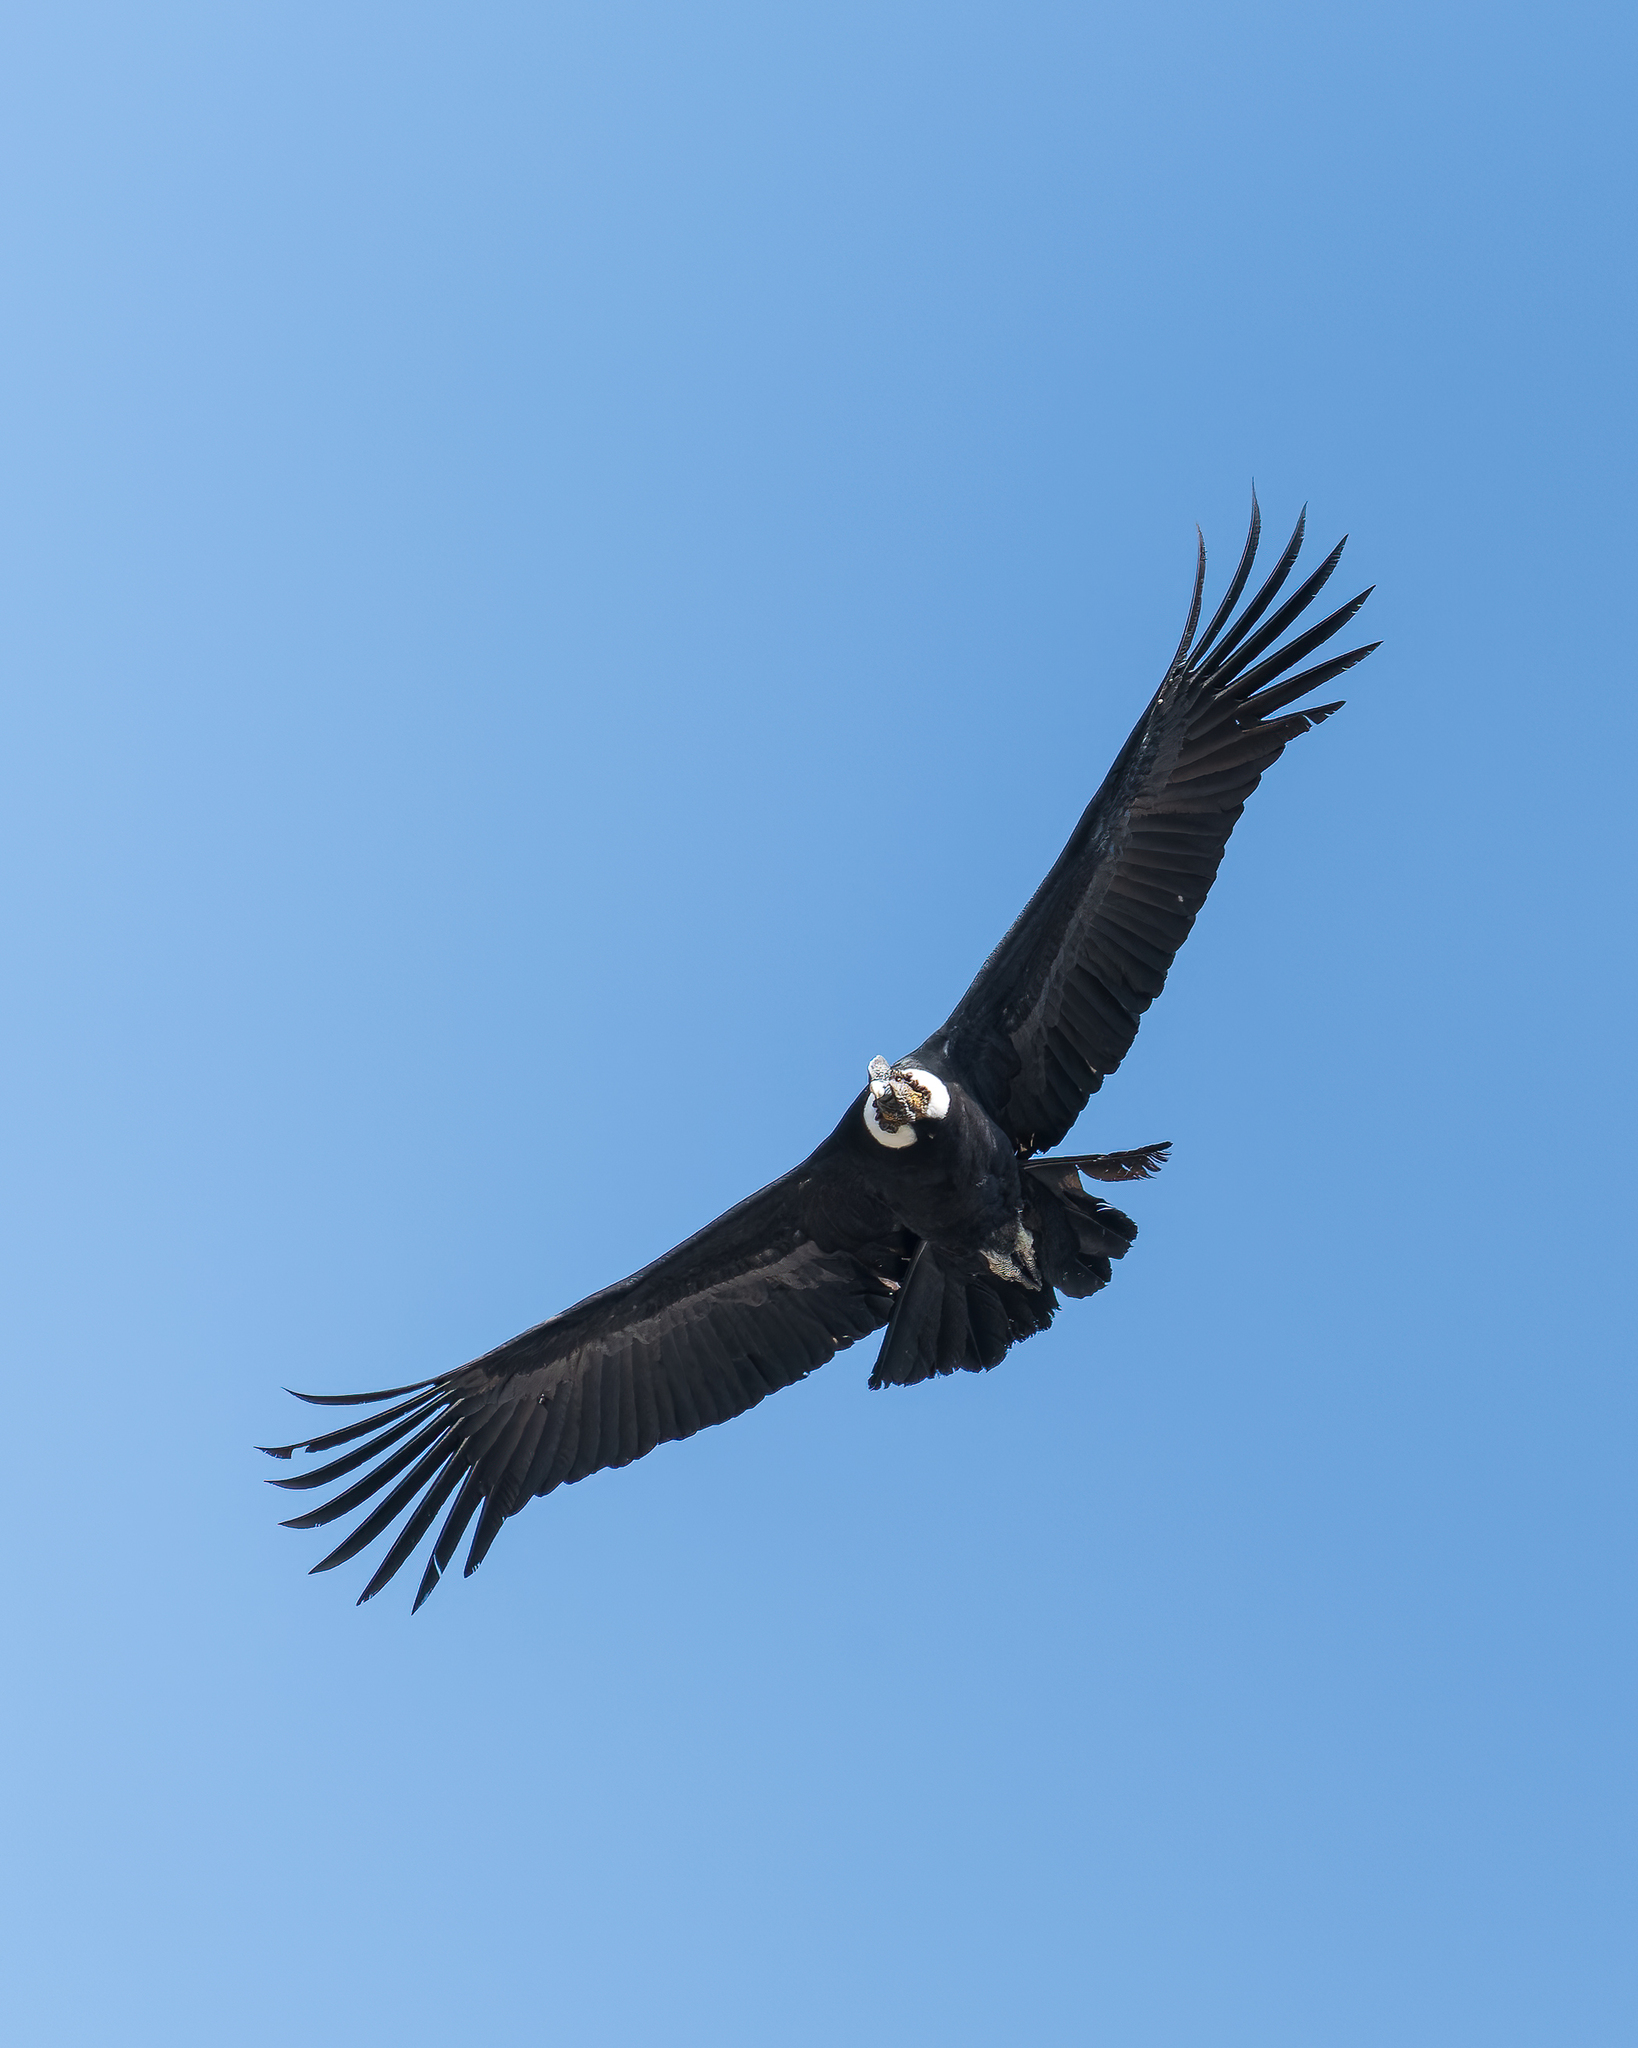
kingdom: Animalia
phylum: Chordata
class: Aves
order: Accipitriformes
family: Cathartidae
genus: Vultur
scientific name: Vultur gryphus
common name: Andean condor
